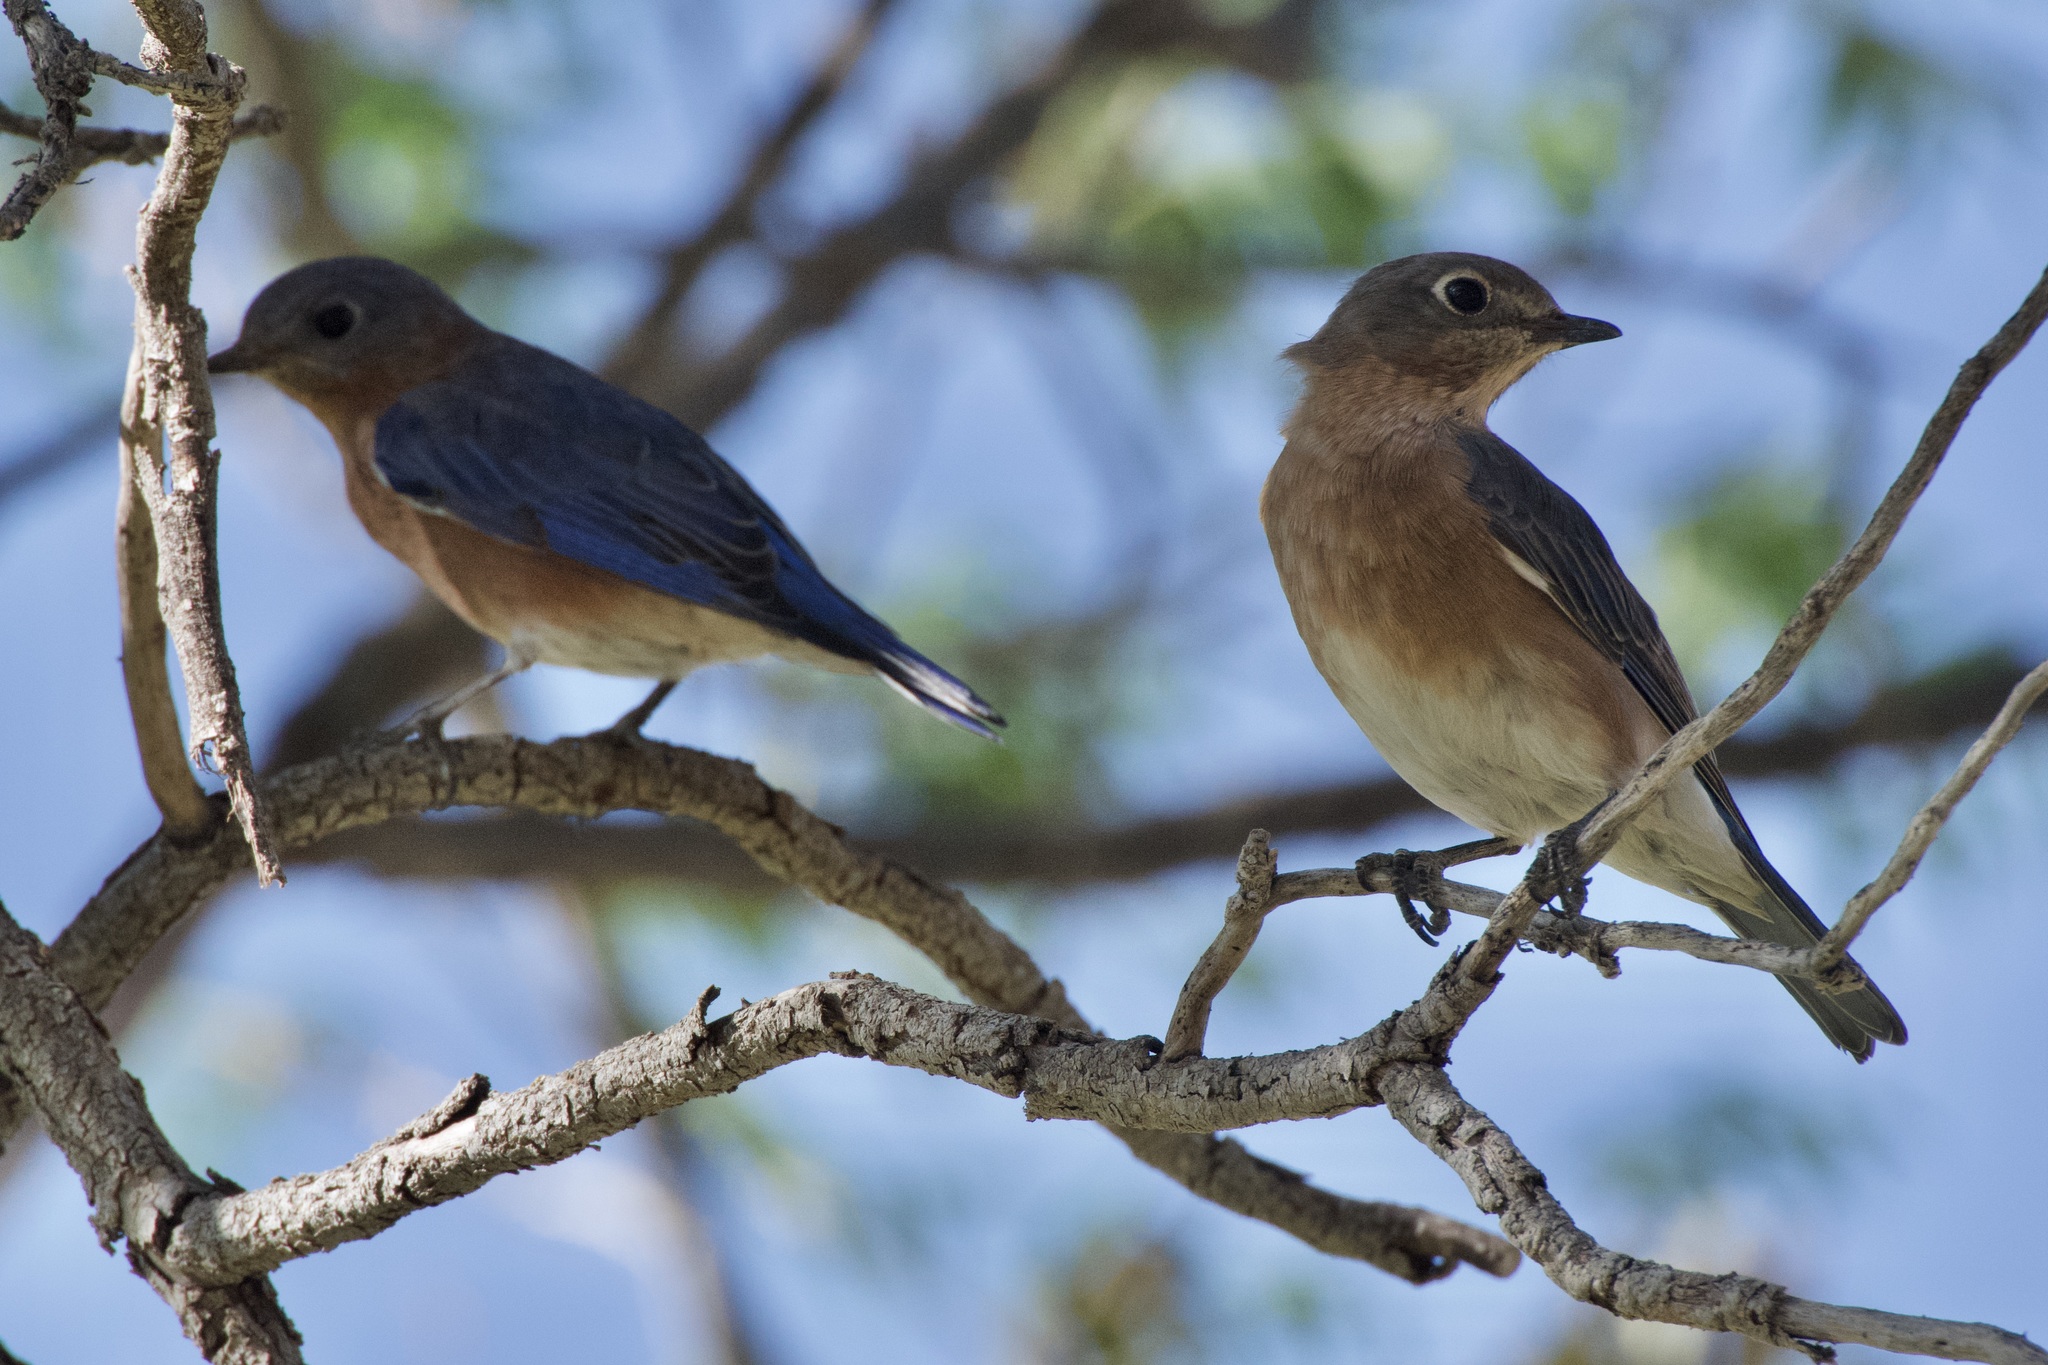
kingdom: Animalia
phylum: Chordata
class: Aves
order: Passeriformes
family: Turdidae
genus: Sialia
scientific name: Sialia sialis
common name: Eastern bluebird
